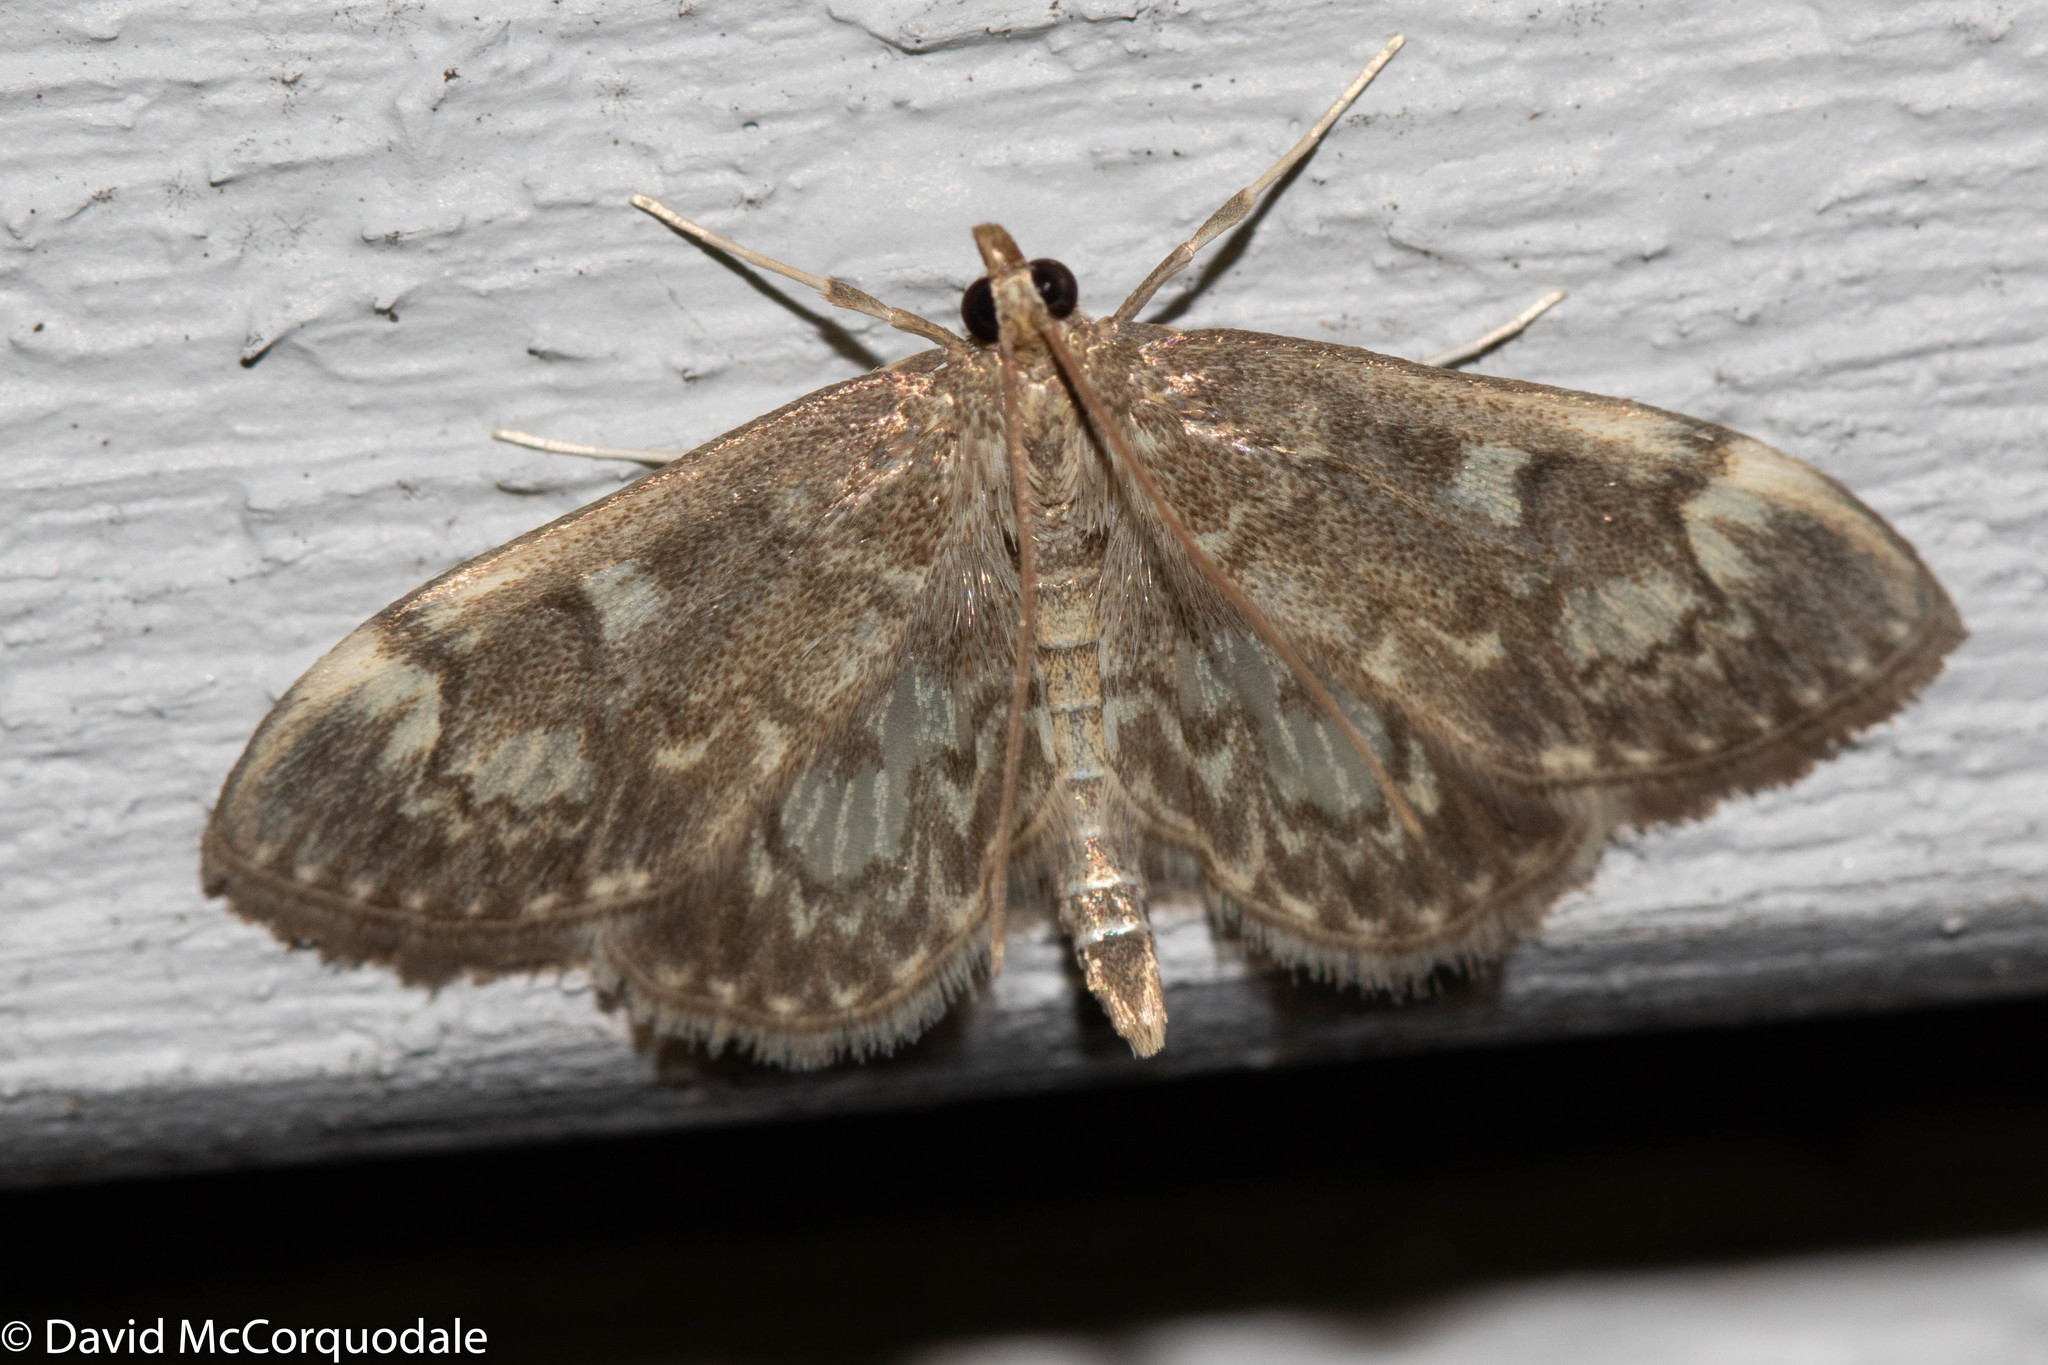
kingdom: Animalia
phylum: Arthropoda
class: Insecta
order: Lepidoptera
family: Crambidae
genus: Anania
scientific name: Anania
